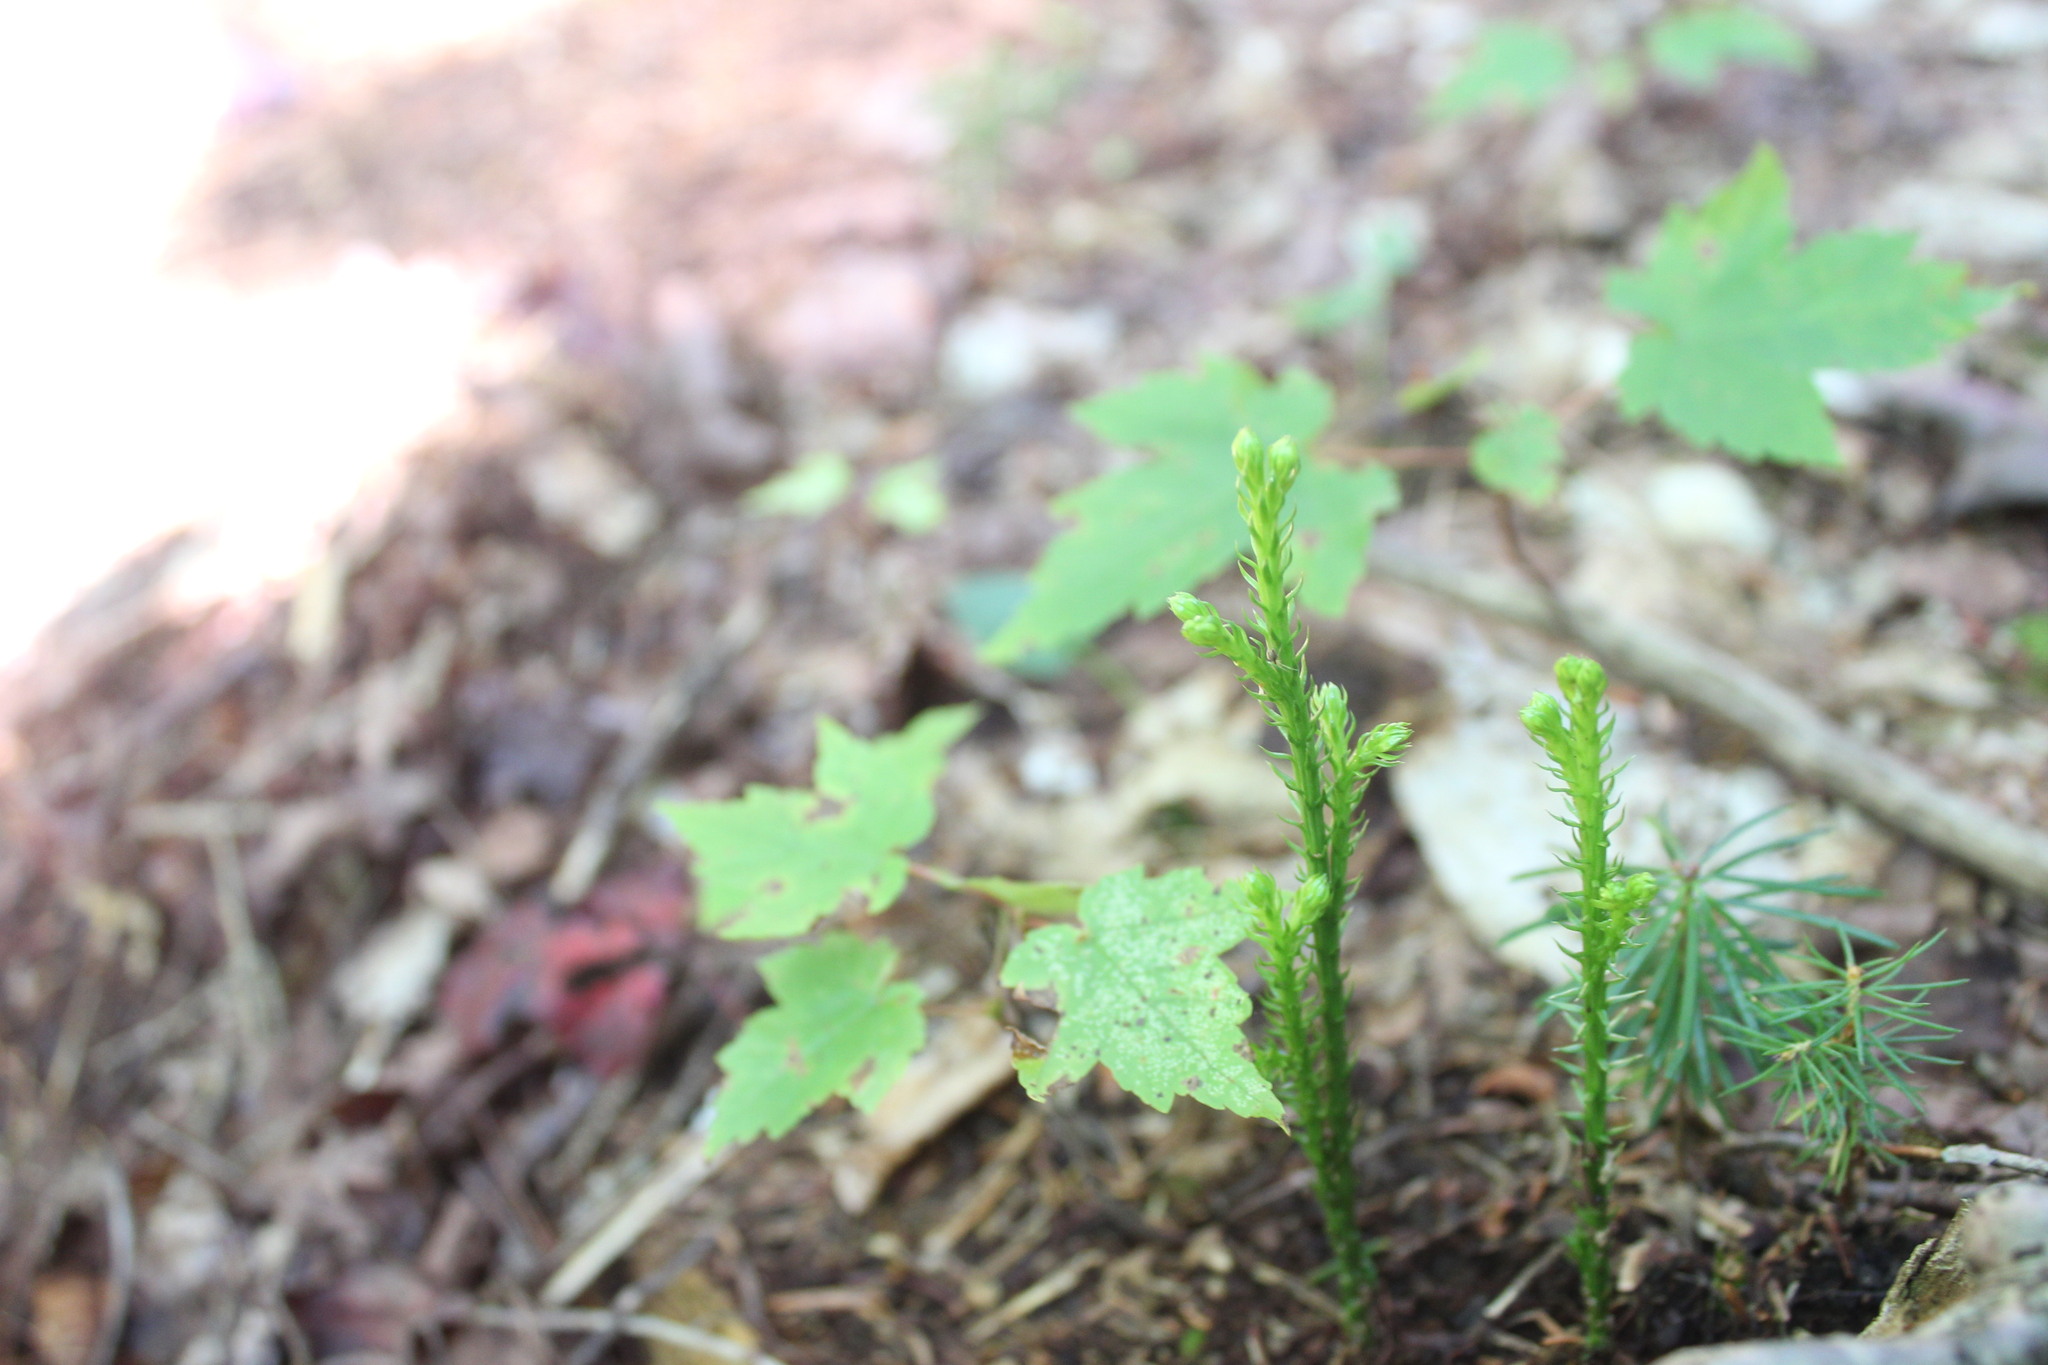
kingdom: Plantae
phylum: Tracheophyta
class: Lycopodiopsida
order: Lycopodiales
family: Lycopodiaceae
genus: Dendrolycopodium
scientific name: Dendrolycopodium dendroideum
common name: Northern tree-clubmoss
